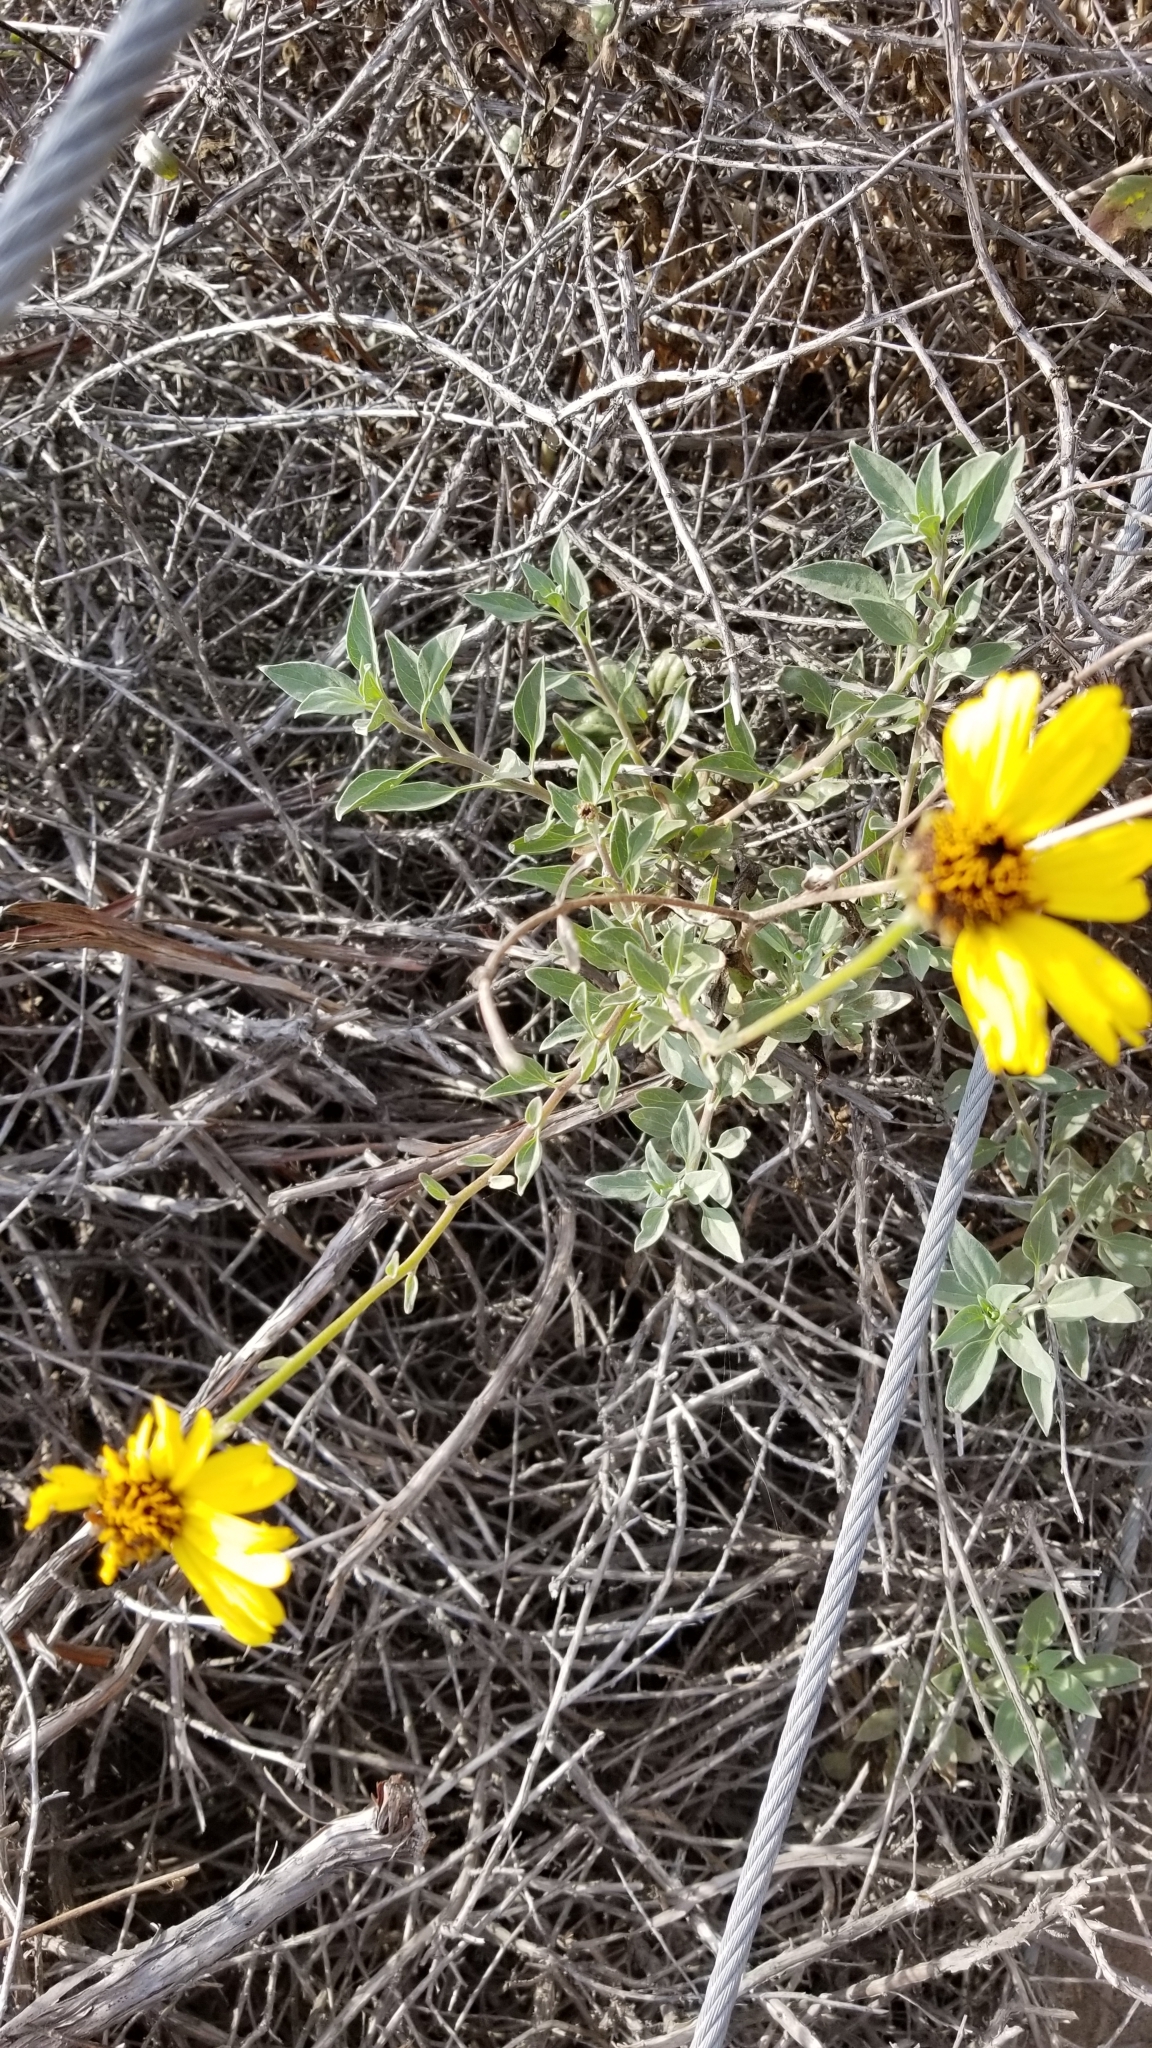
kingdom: Plantae
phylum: Tracheophyta
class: Magnoliopsida
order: Asterales
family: Asteraceae
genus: Encelia
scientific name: Encelia californica
